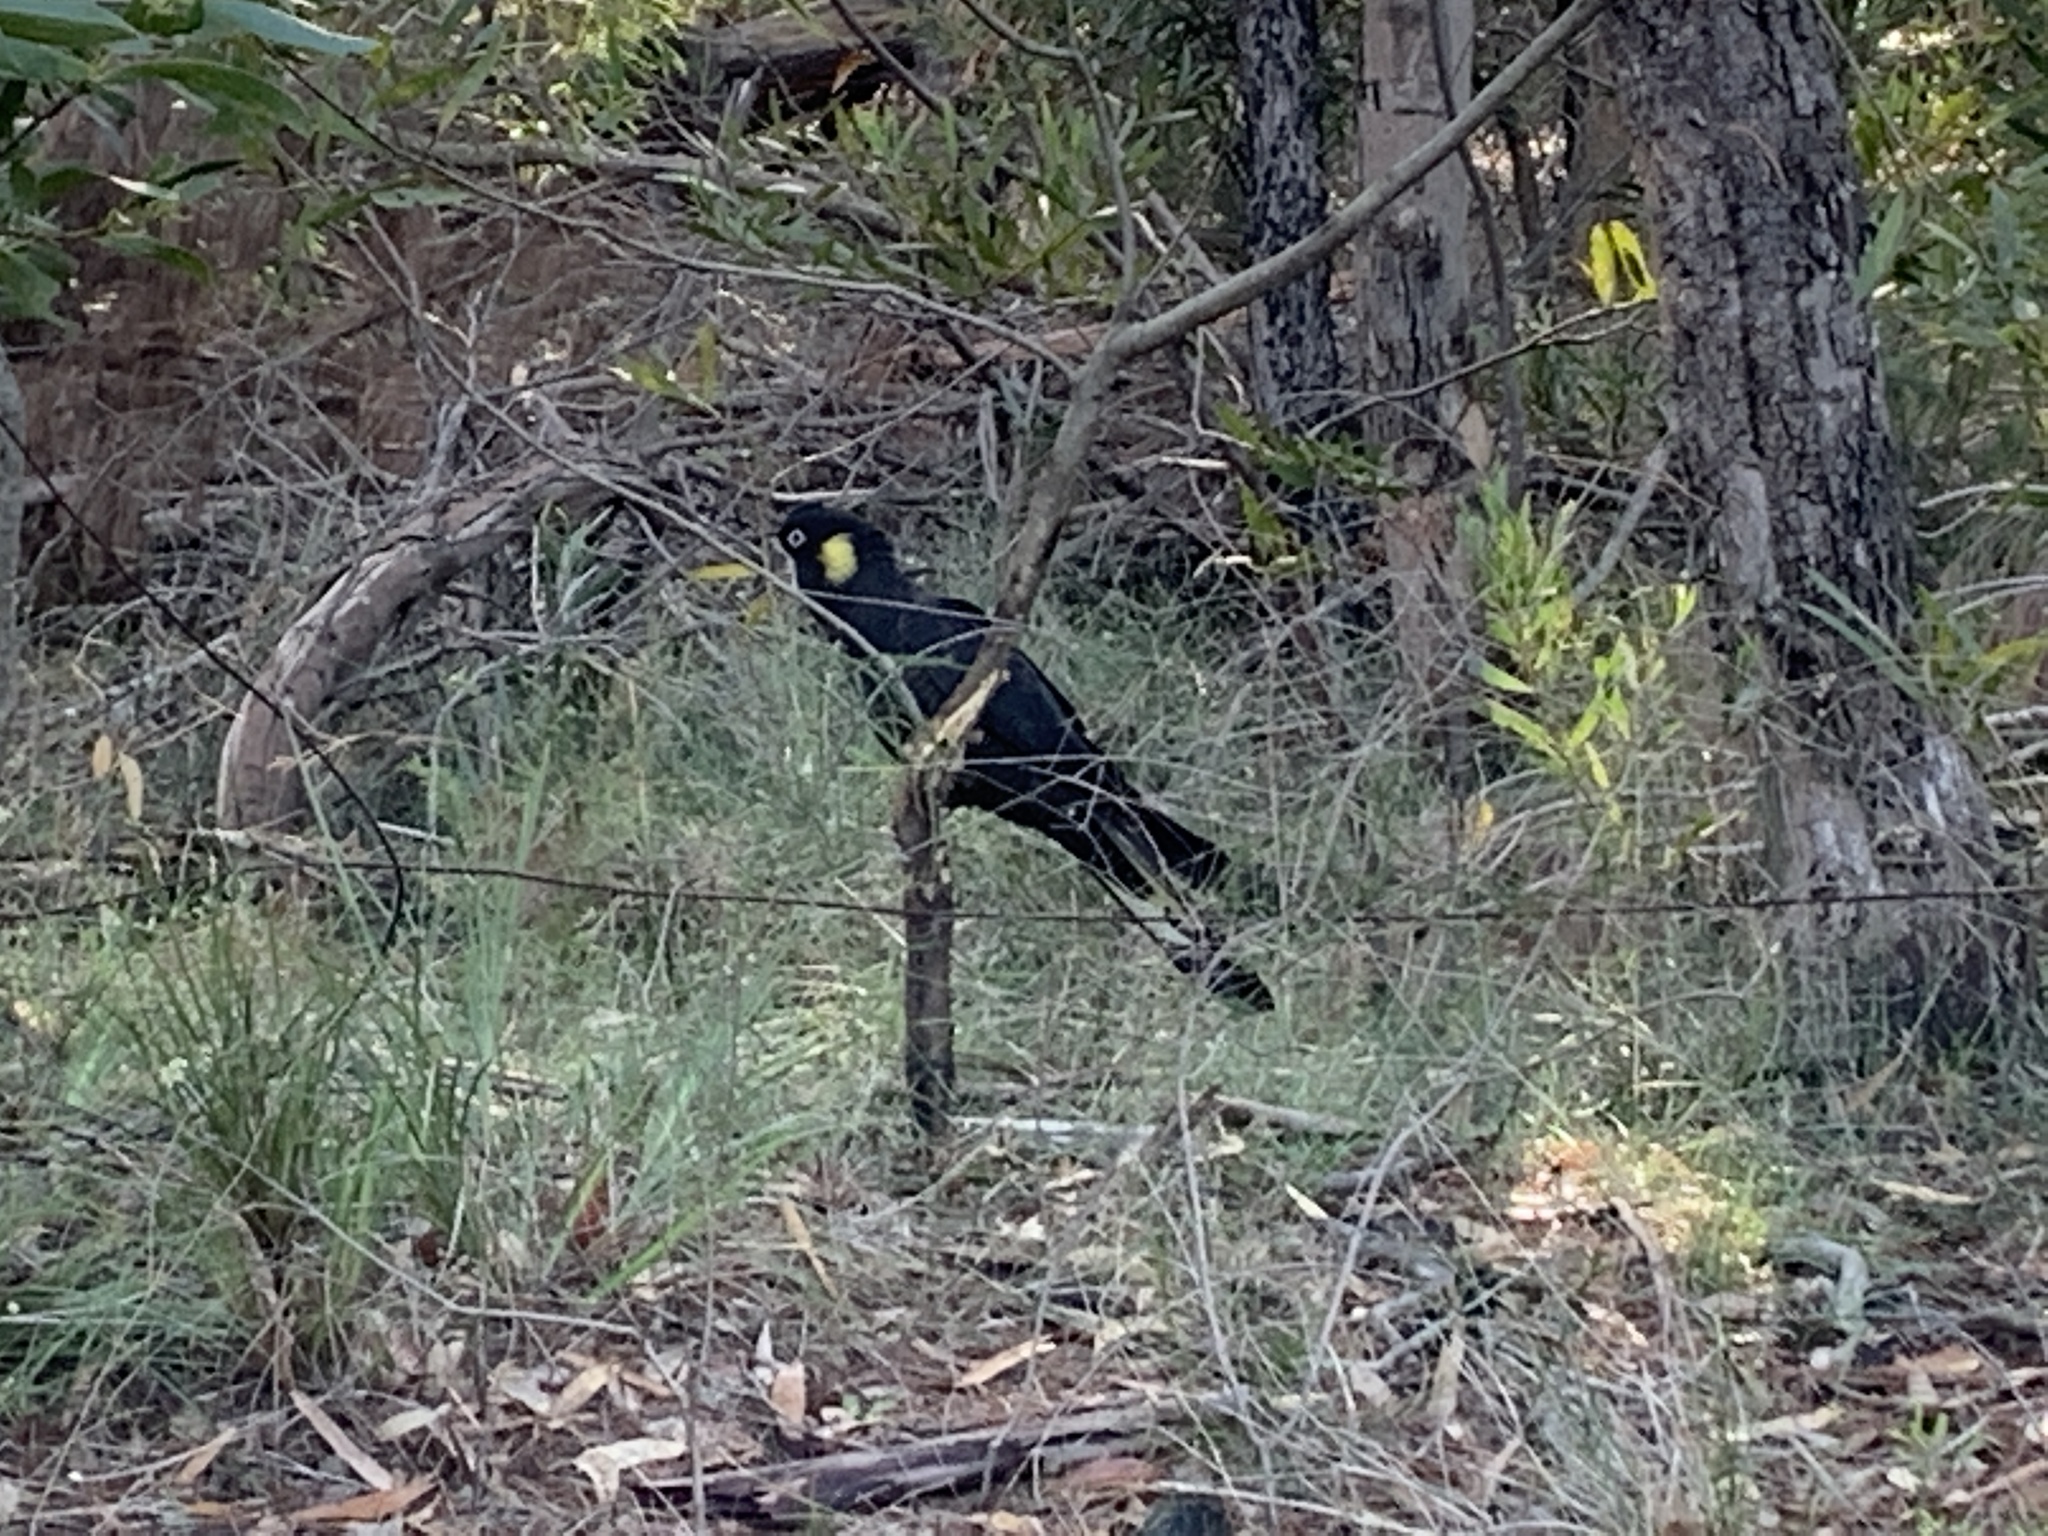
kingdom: Animalia
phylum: Chordata
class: Aves
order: Psittaciformes
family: Cacatuidae
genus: Zanda
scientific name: Zanda funerea
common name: Yellow-tailed black-cockatoo
